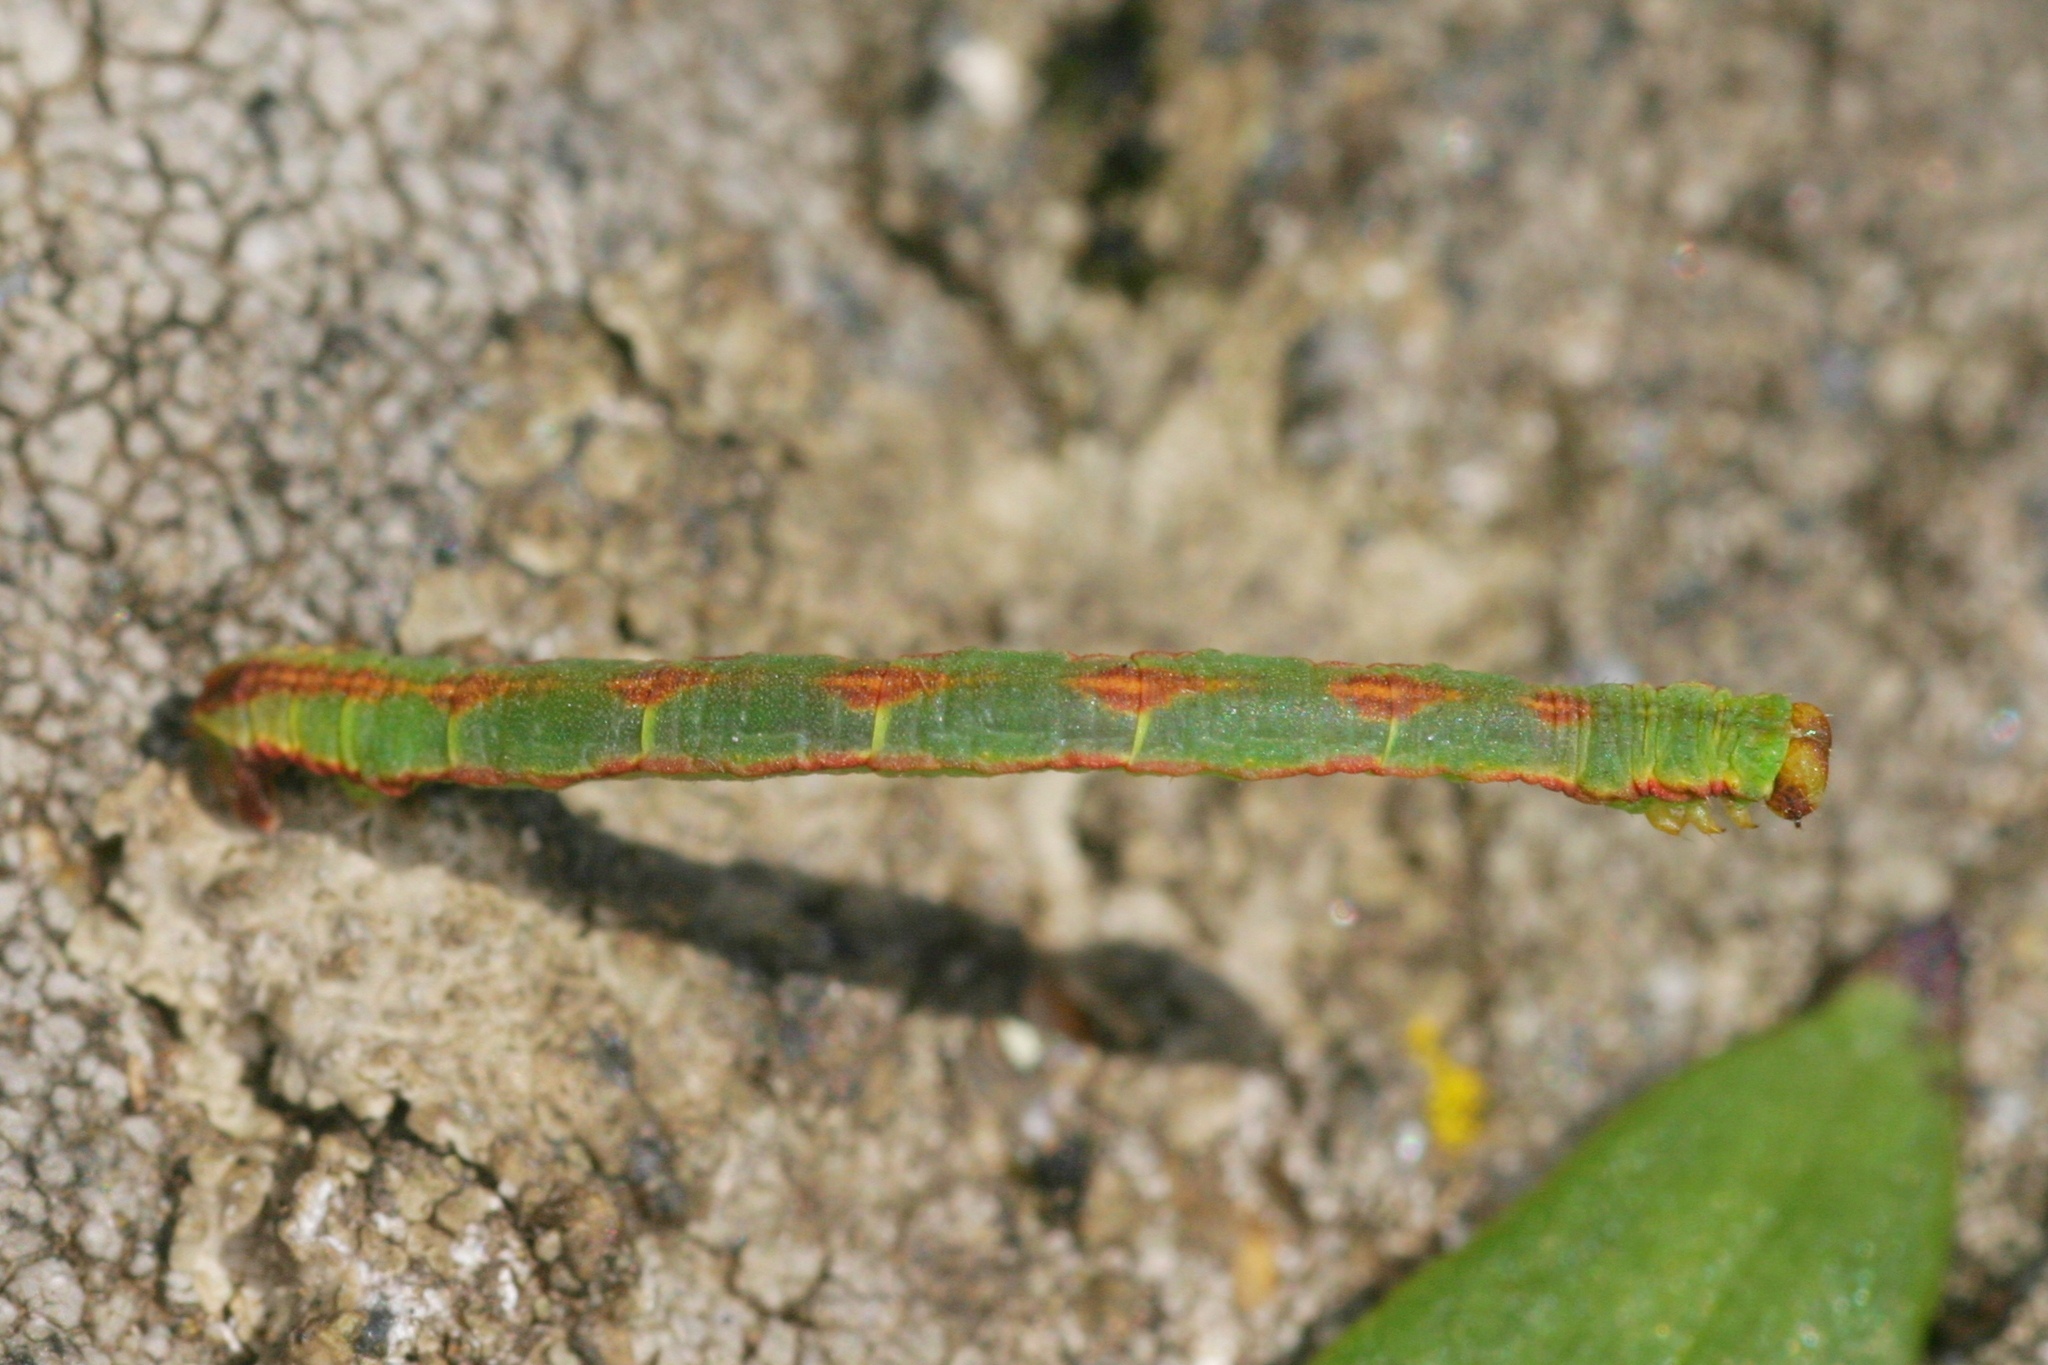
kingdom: Animalia
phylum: Arthropoda
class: Insecta
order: Lepidoptera
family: Geometridae
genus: Eupithecia
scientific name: Eupithecia exiguata
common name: Mottled pug
